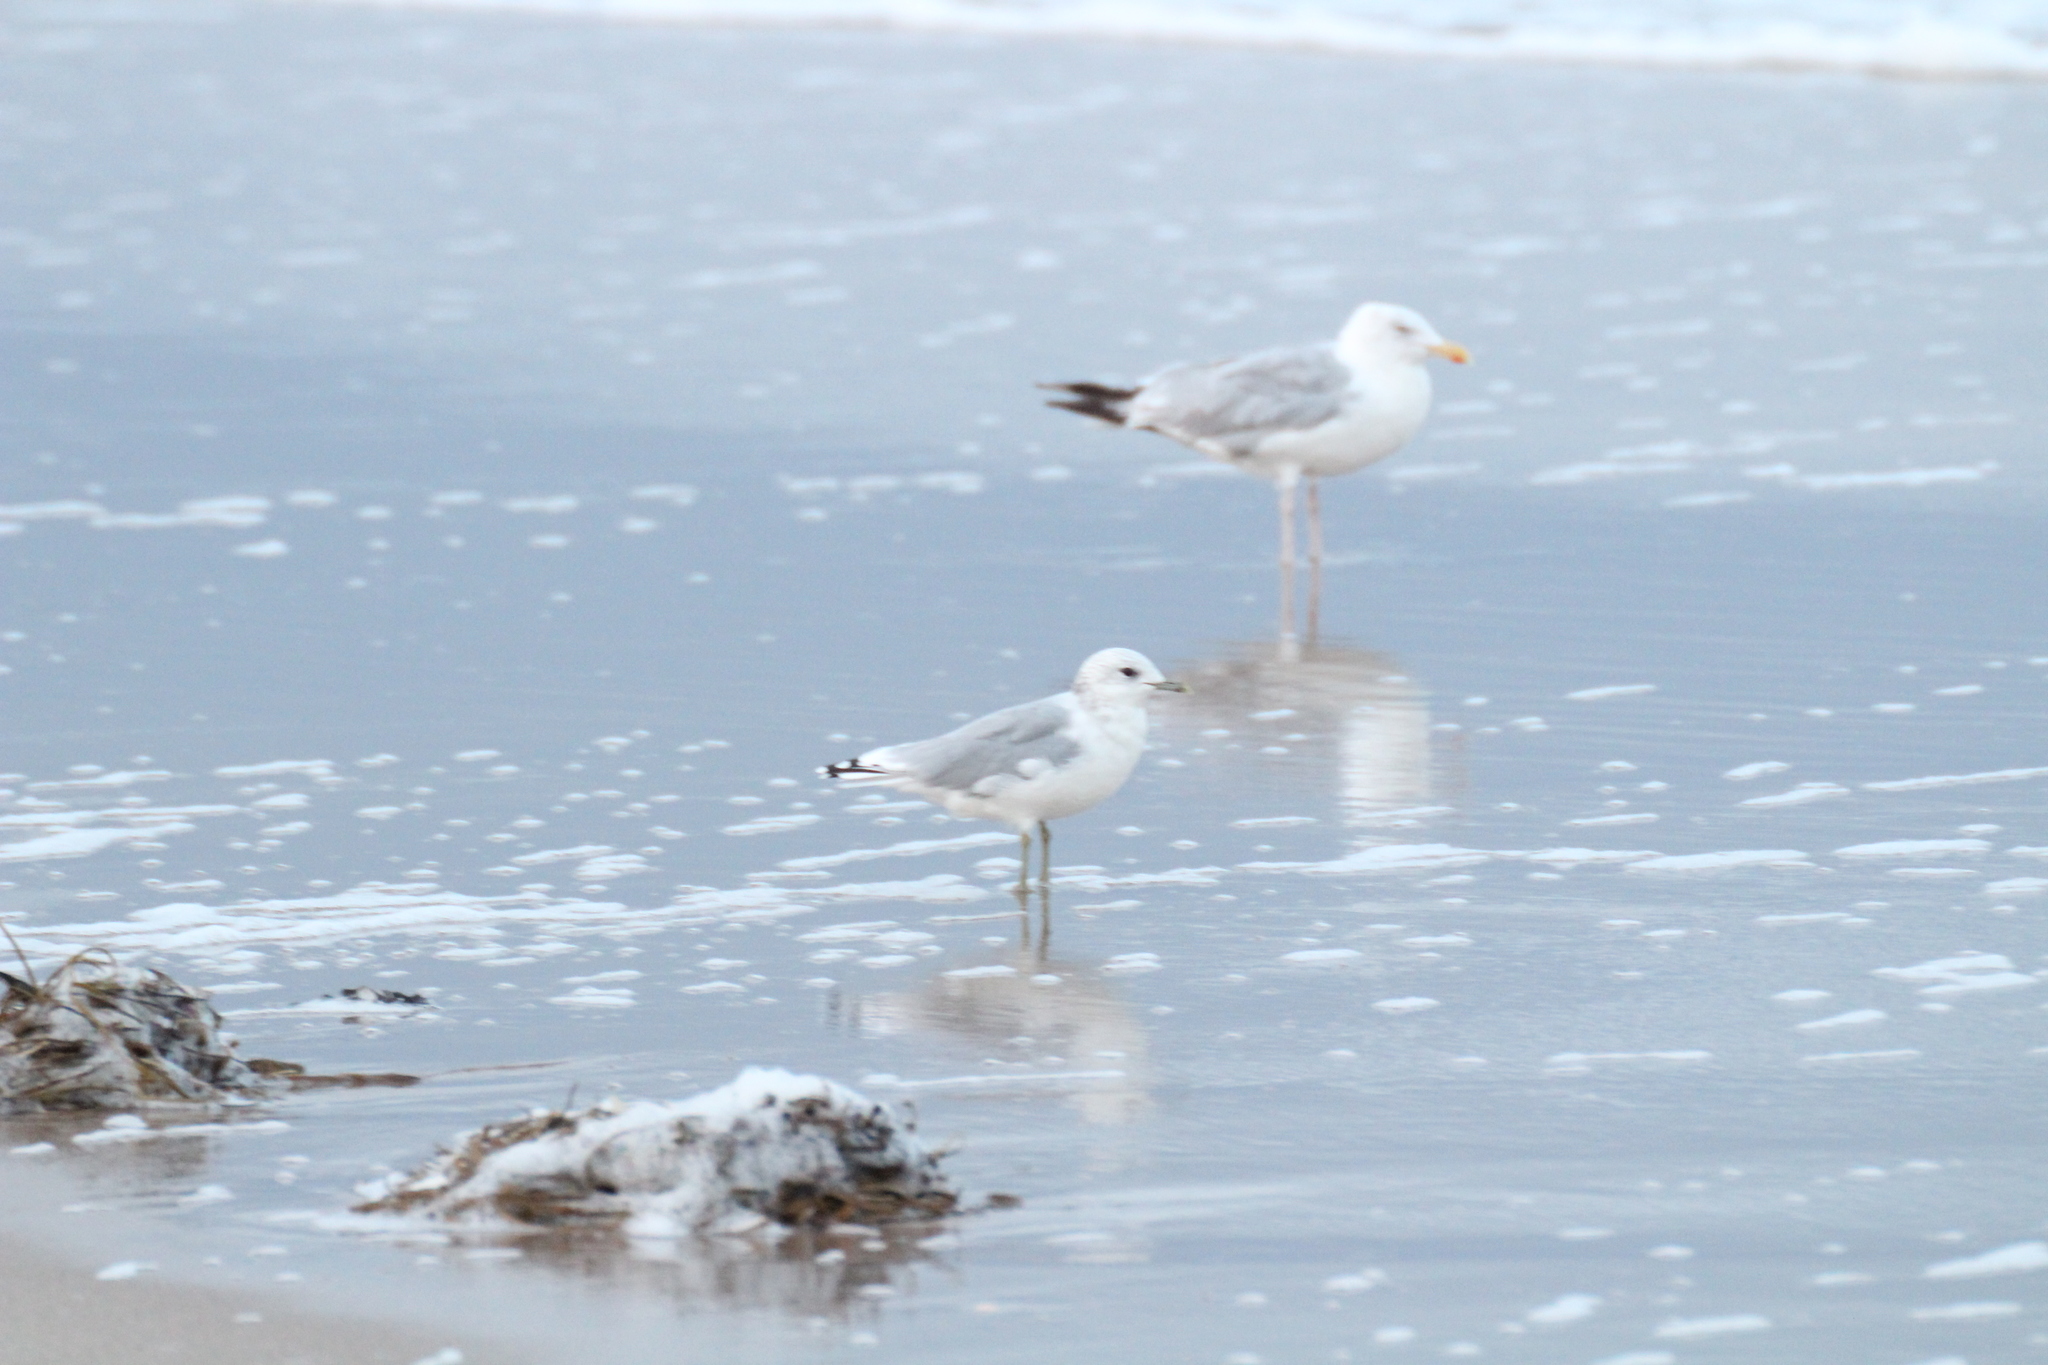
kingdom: Animalia
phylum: Chordata
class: Aves
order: Charadriiformes
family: Laridae
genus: Larus
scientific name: Larus canus
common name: Mew gull
